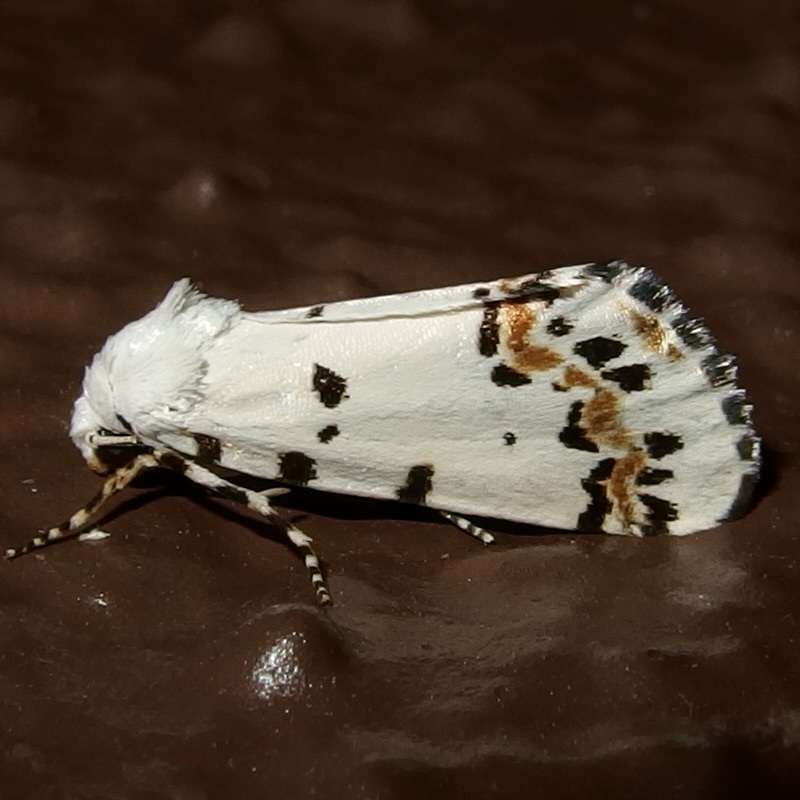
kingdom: Animalia
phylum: Arthropoda
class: Insecta
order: Lepidoptera
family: Noctuidae
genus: Grotella
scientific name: Grotella tricolor
